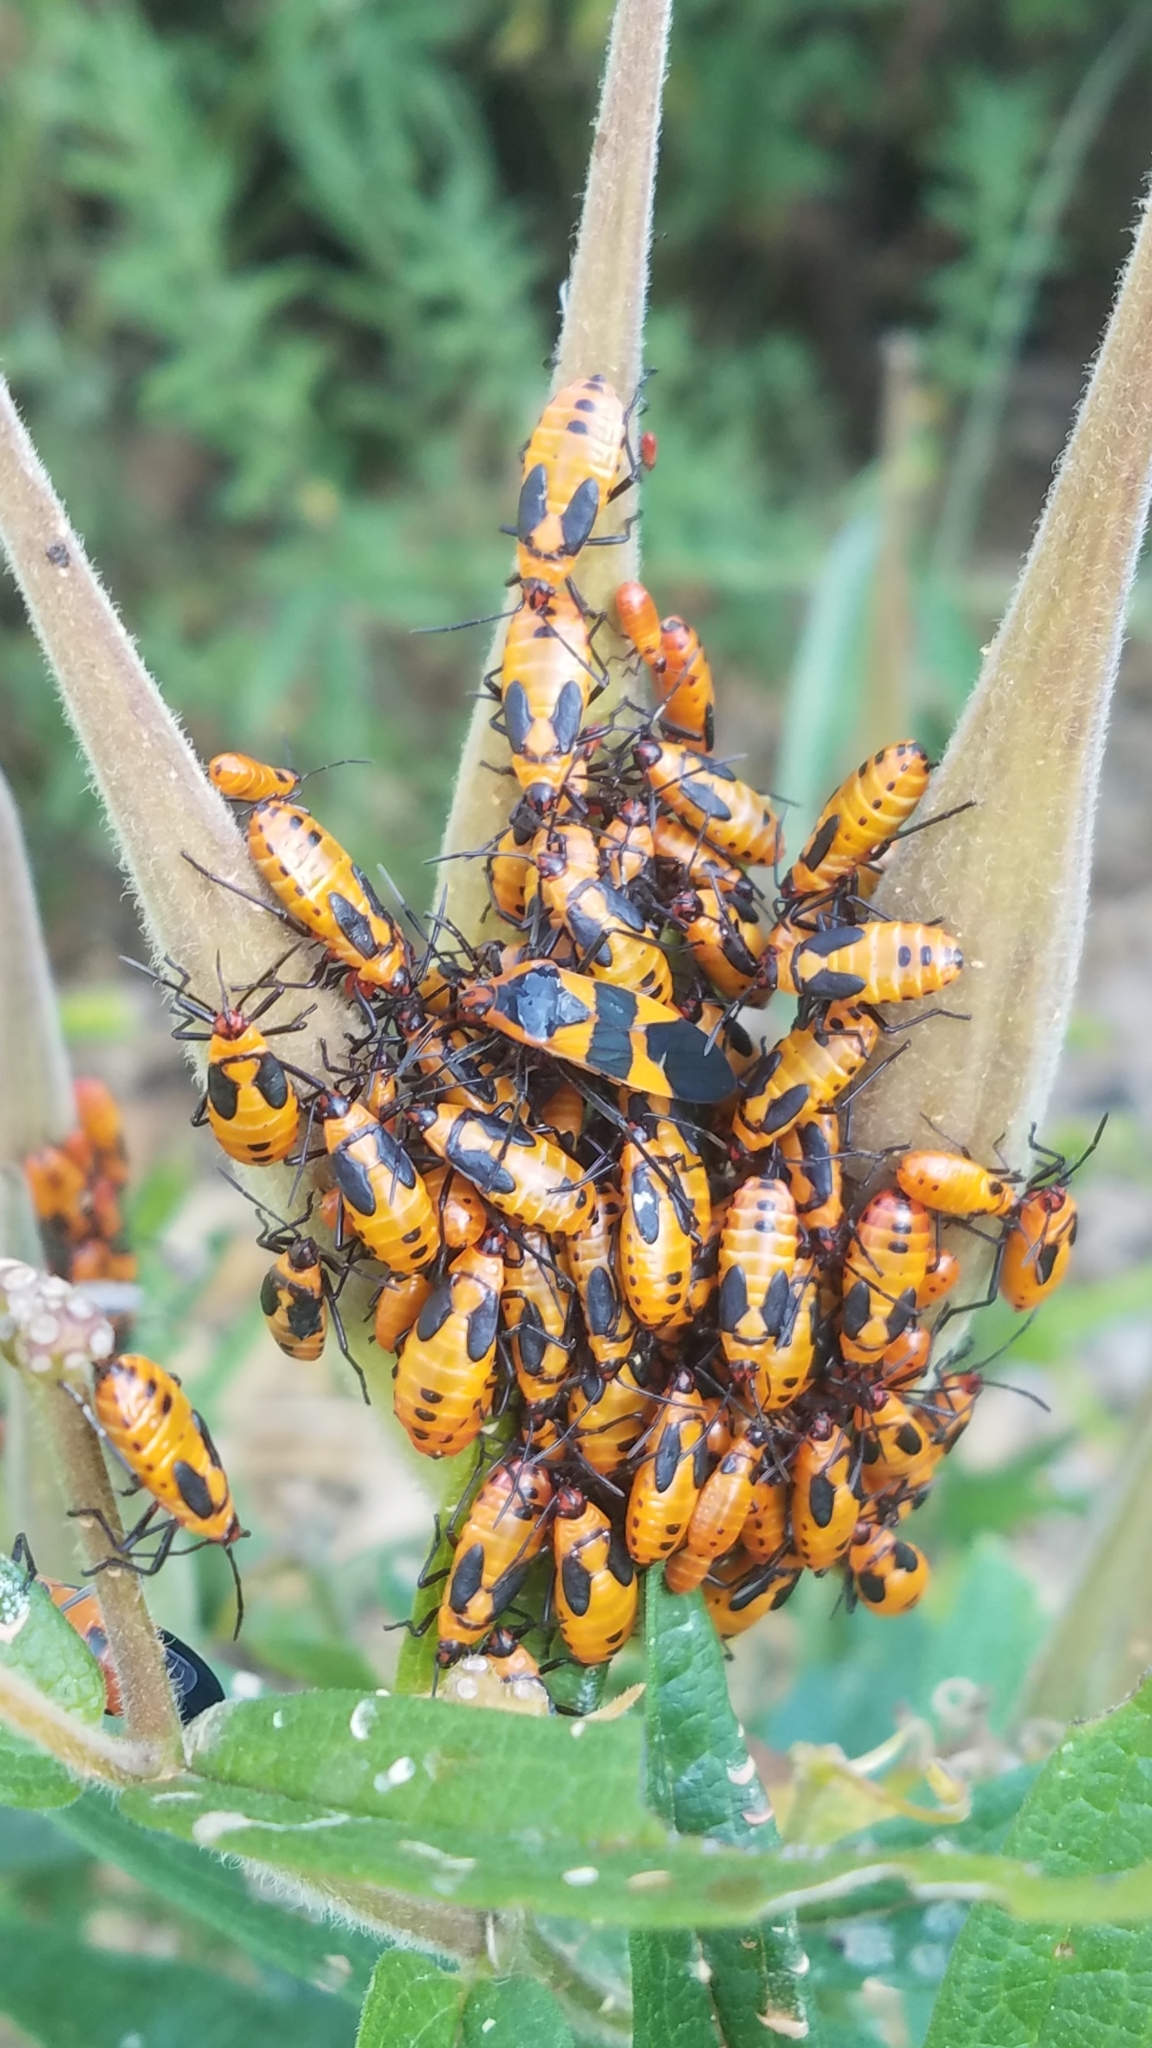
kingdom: Animalia
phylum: Arthropoda
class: Insecta
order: Hemiptera
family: Lygaeidae
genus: Oncopeltus
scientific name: Oncopeltus fasciatus
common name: Large milkweed bug
